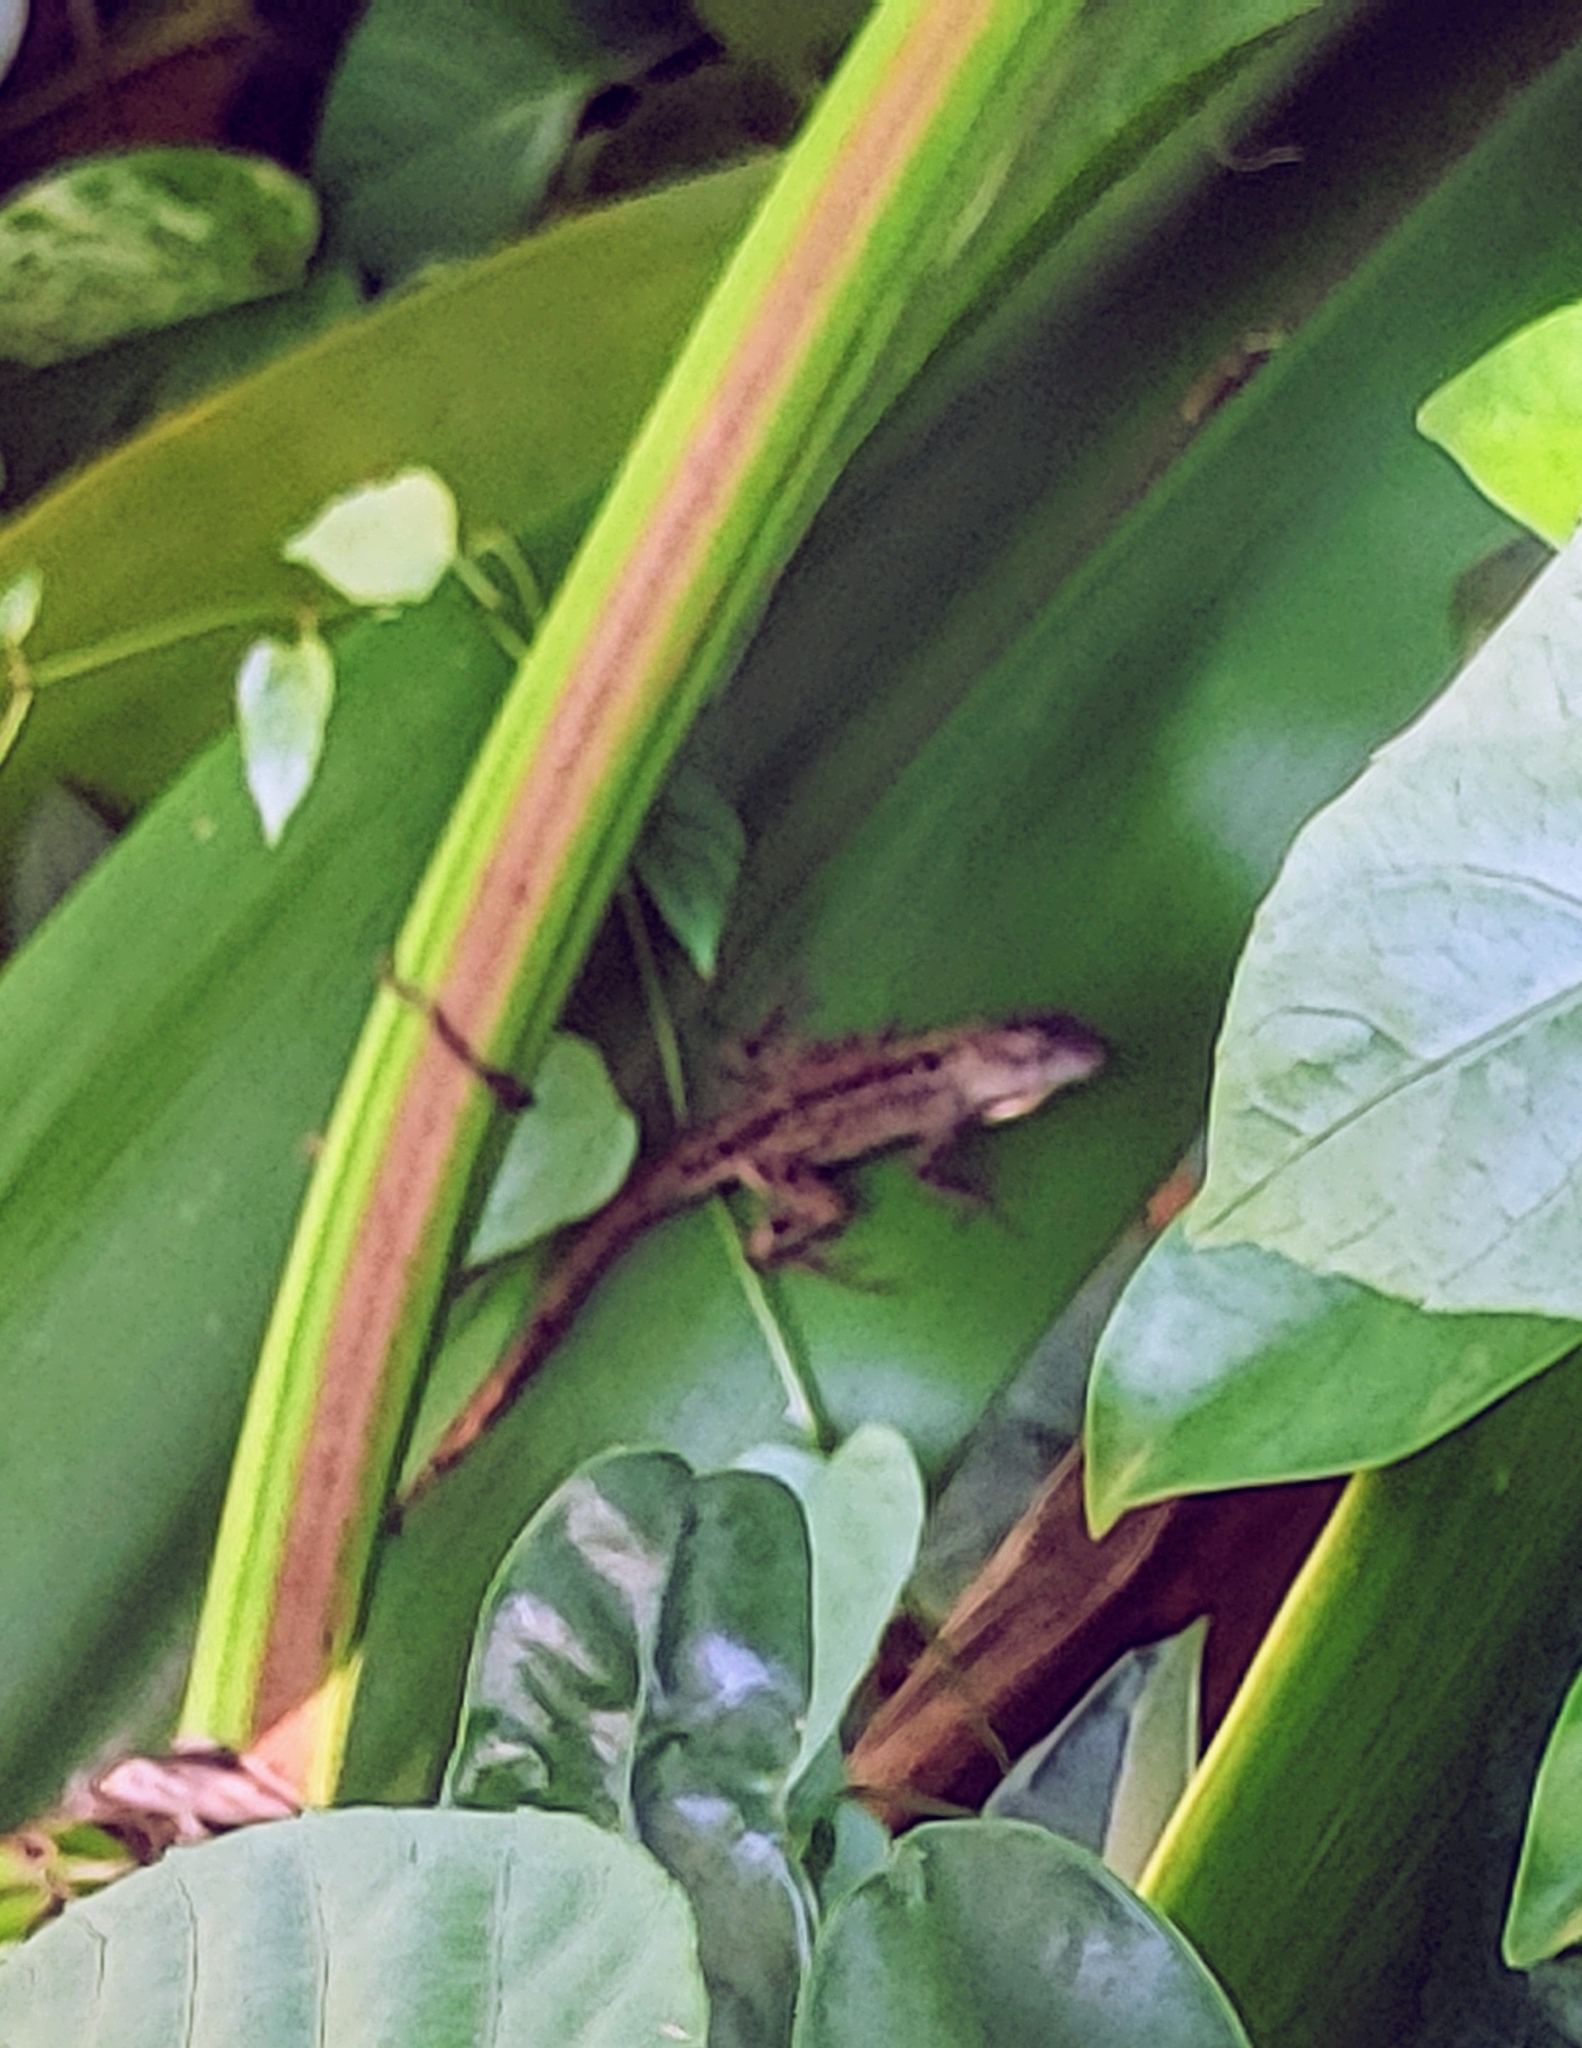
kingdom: Animalia
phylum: Chordata
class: Squamata
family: Dactyloidae
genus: Anolis
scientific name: Anolis sagrei
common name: Brown anole
